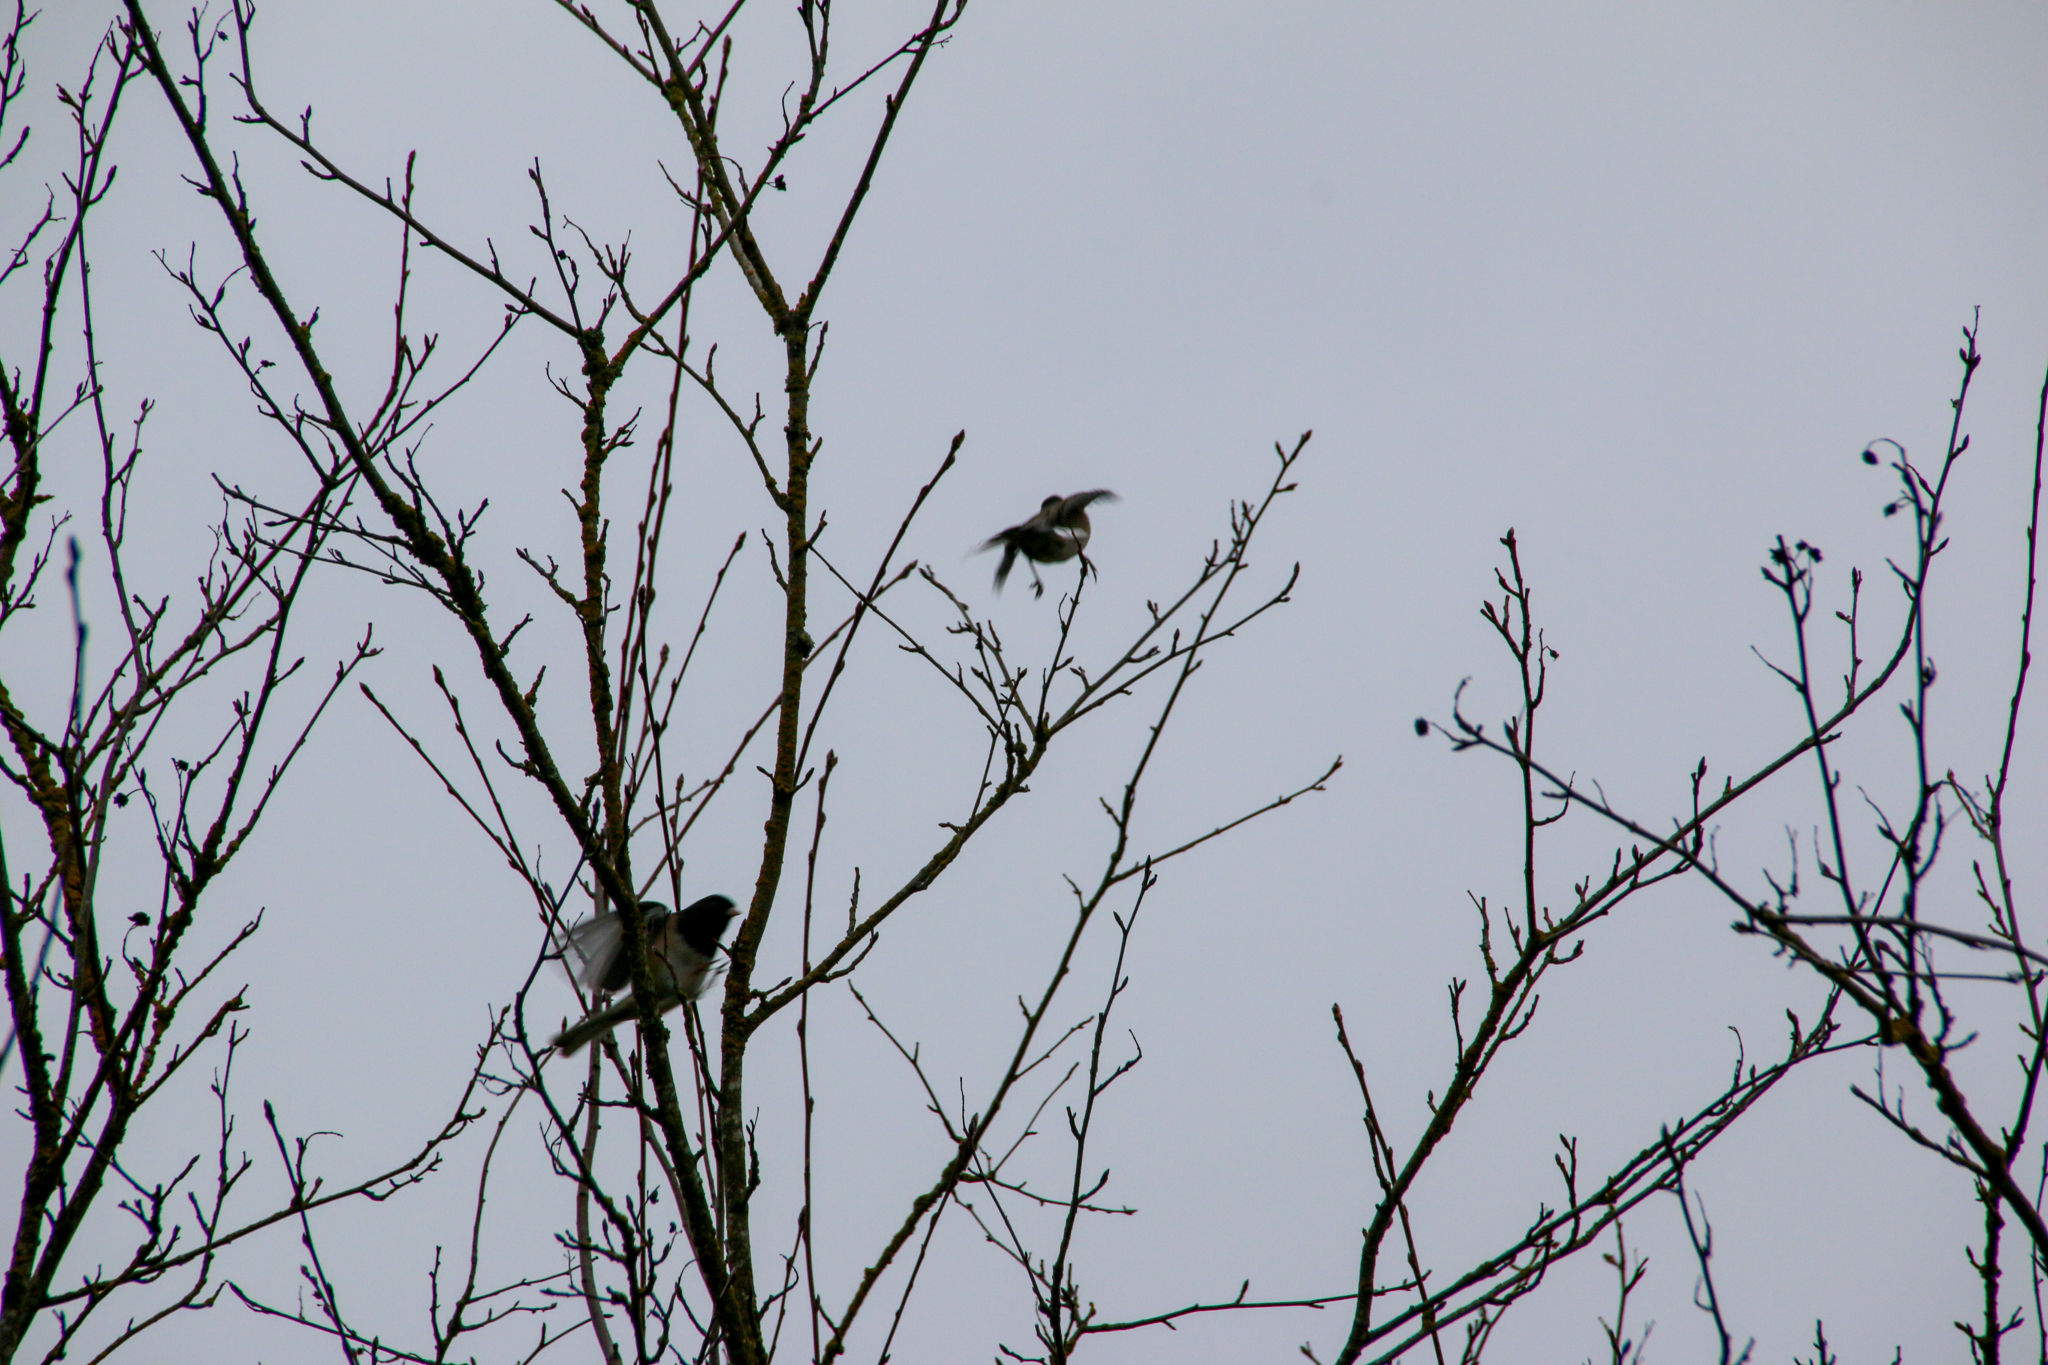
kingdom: Animalia
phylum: Chordata
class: Aves
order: Passeriformes
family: Passerellidae
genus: Junco
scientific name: Junco hyemalis
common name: Dark-eyed junco
